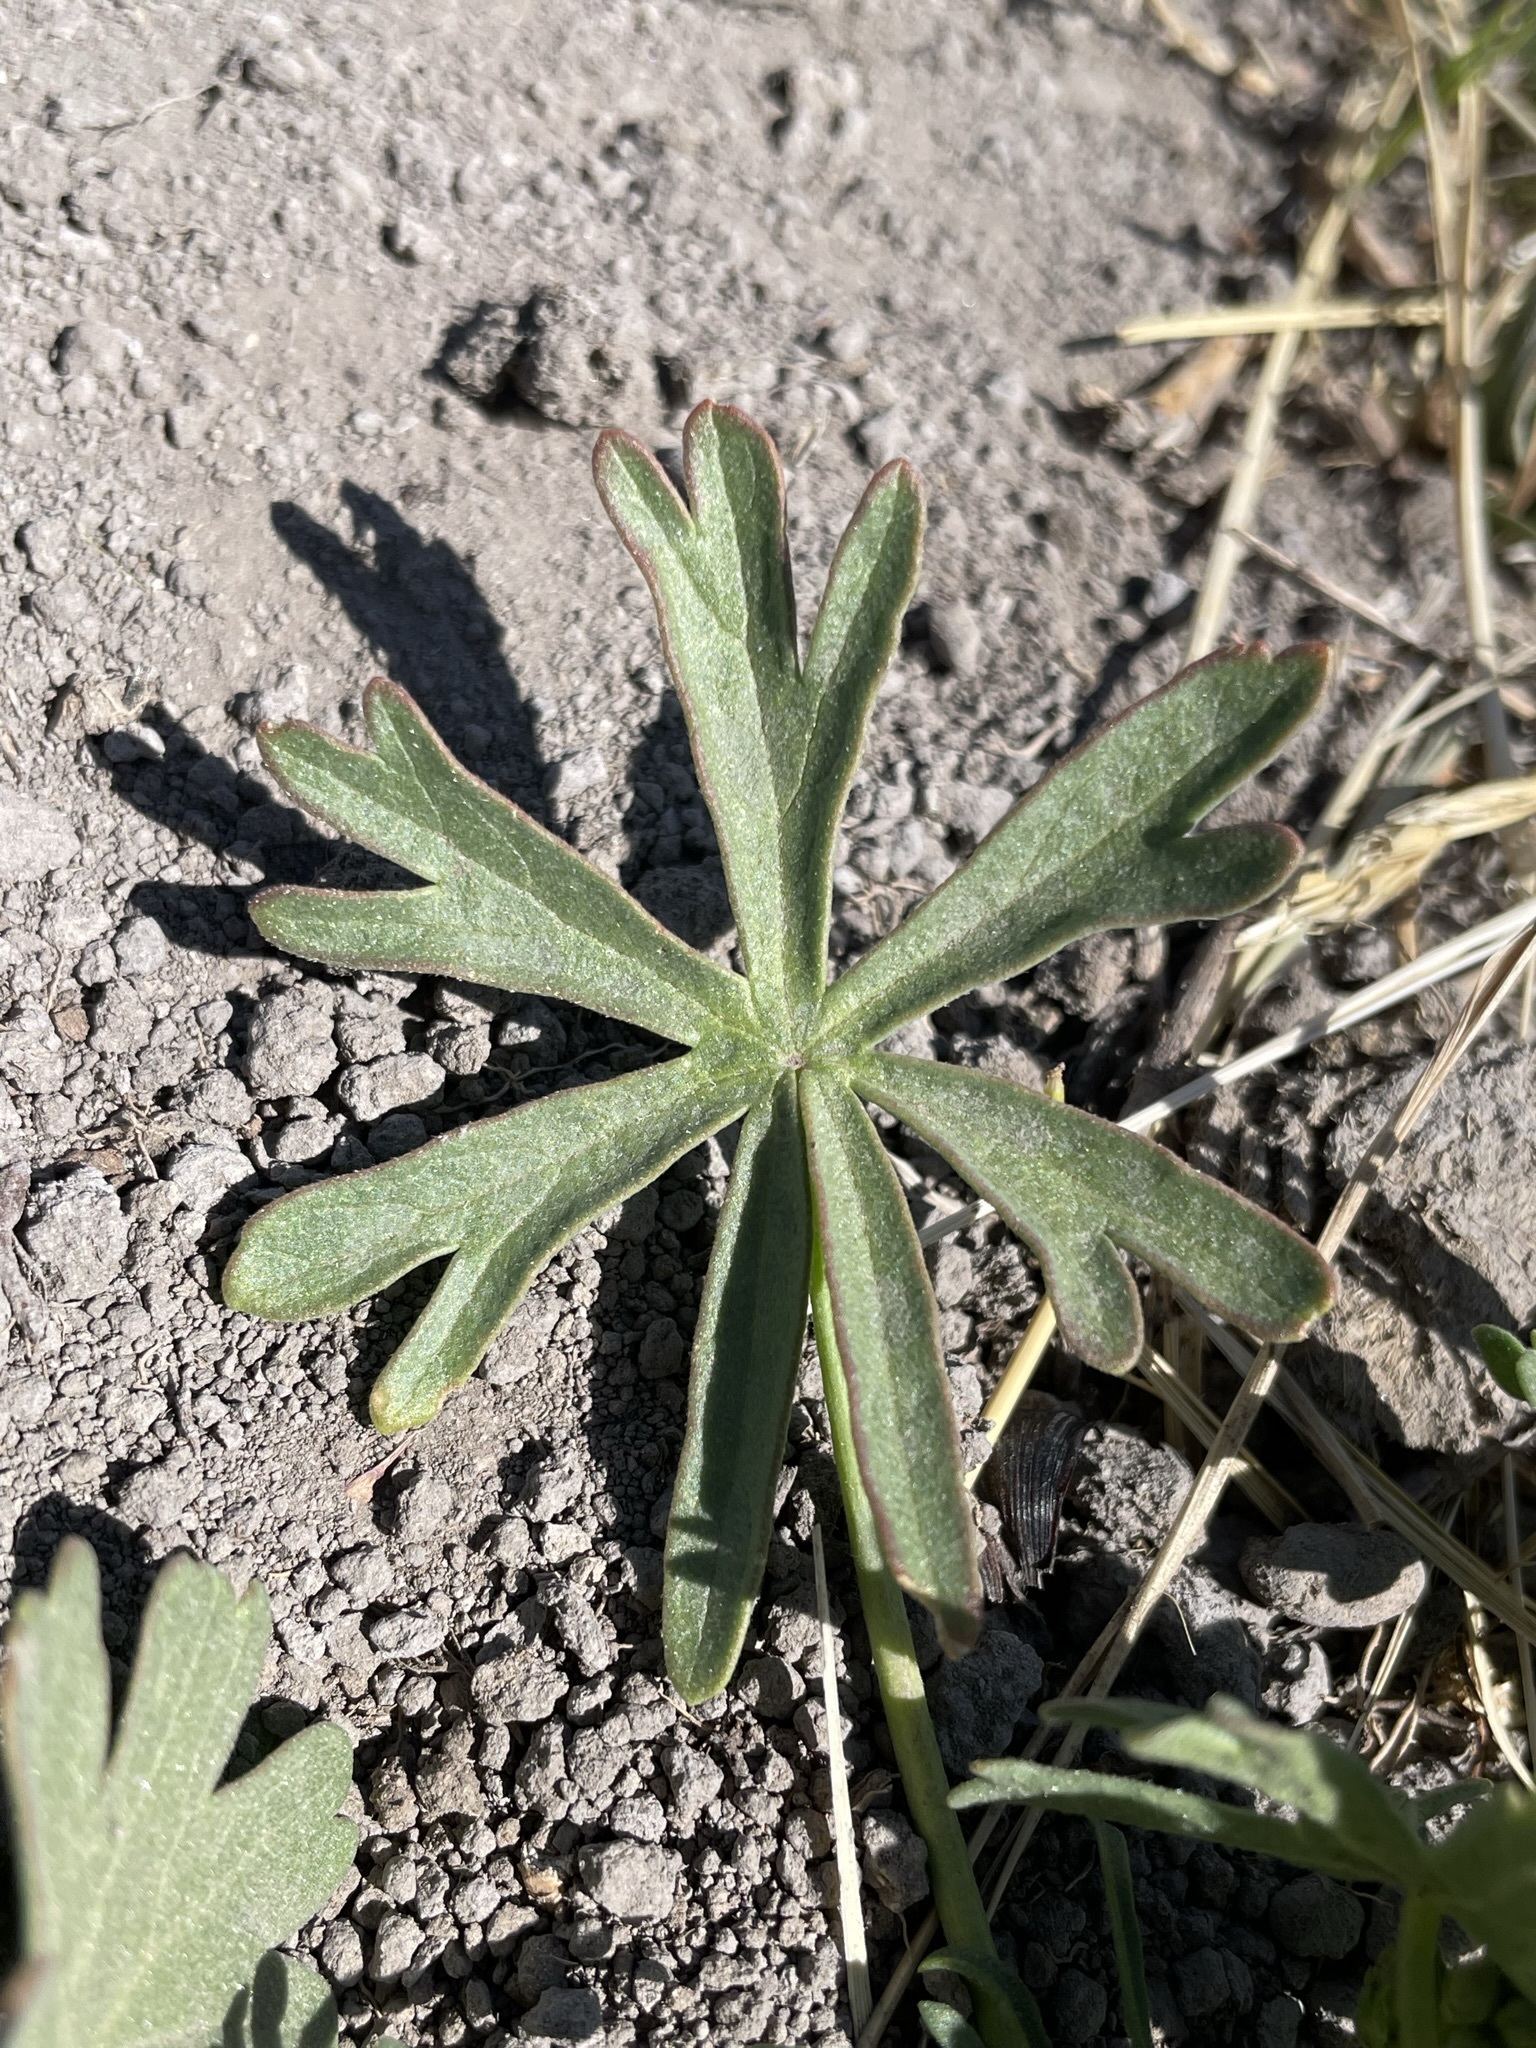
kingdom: Plantae
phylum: Tracheophyta
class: Magnoliopsida
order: Malvales
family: Malvaceae
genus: Sidalcea
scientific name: Sidalcea covillei
